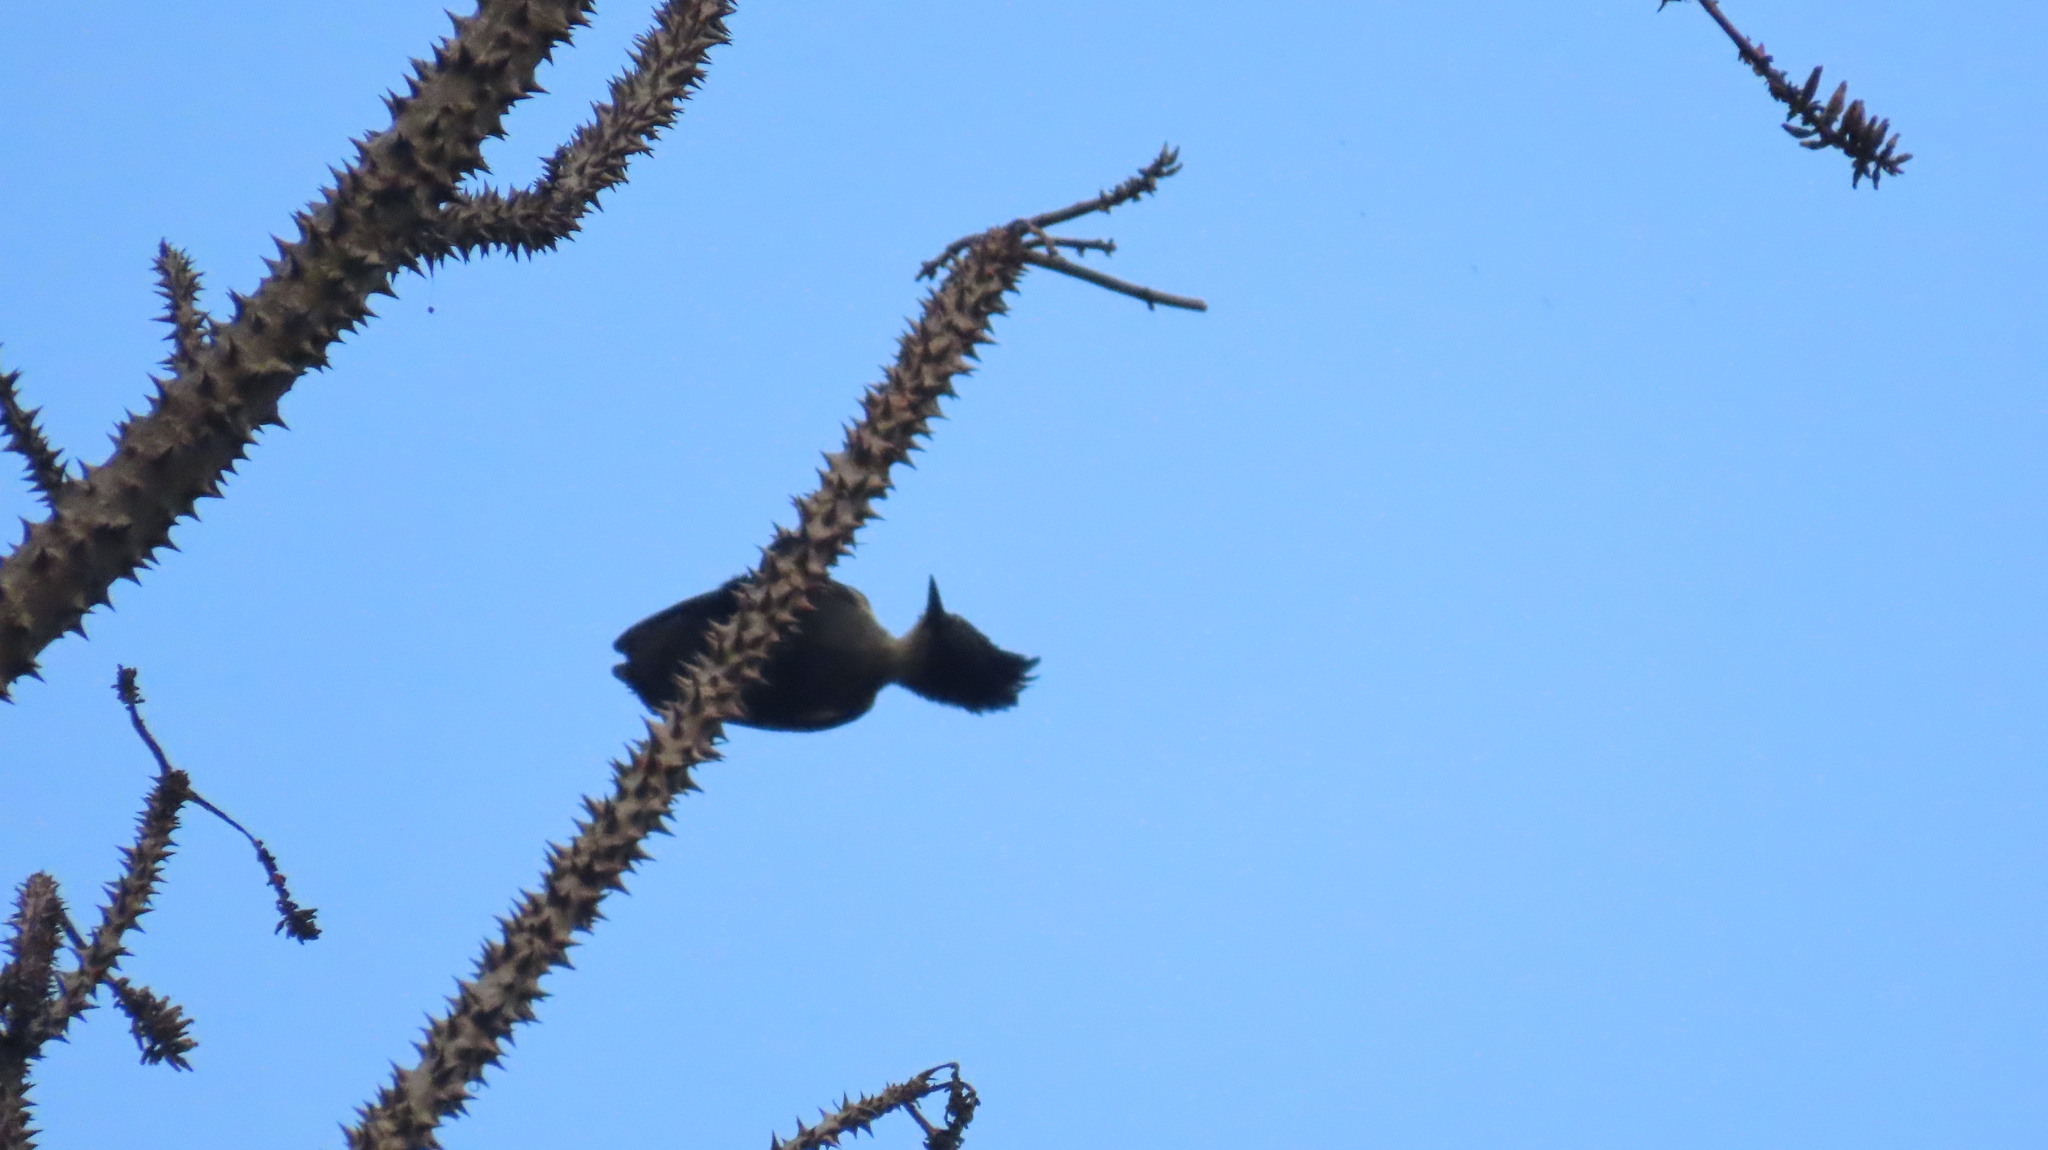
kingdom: Animalia
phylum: Chordata
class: Aves
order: Piciformes
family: Picidae
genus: Hemicircus
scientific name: Hemicircus canente
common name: Heart-spotted woodpecker
